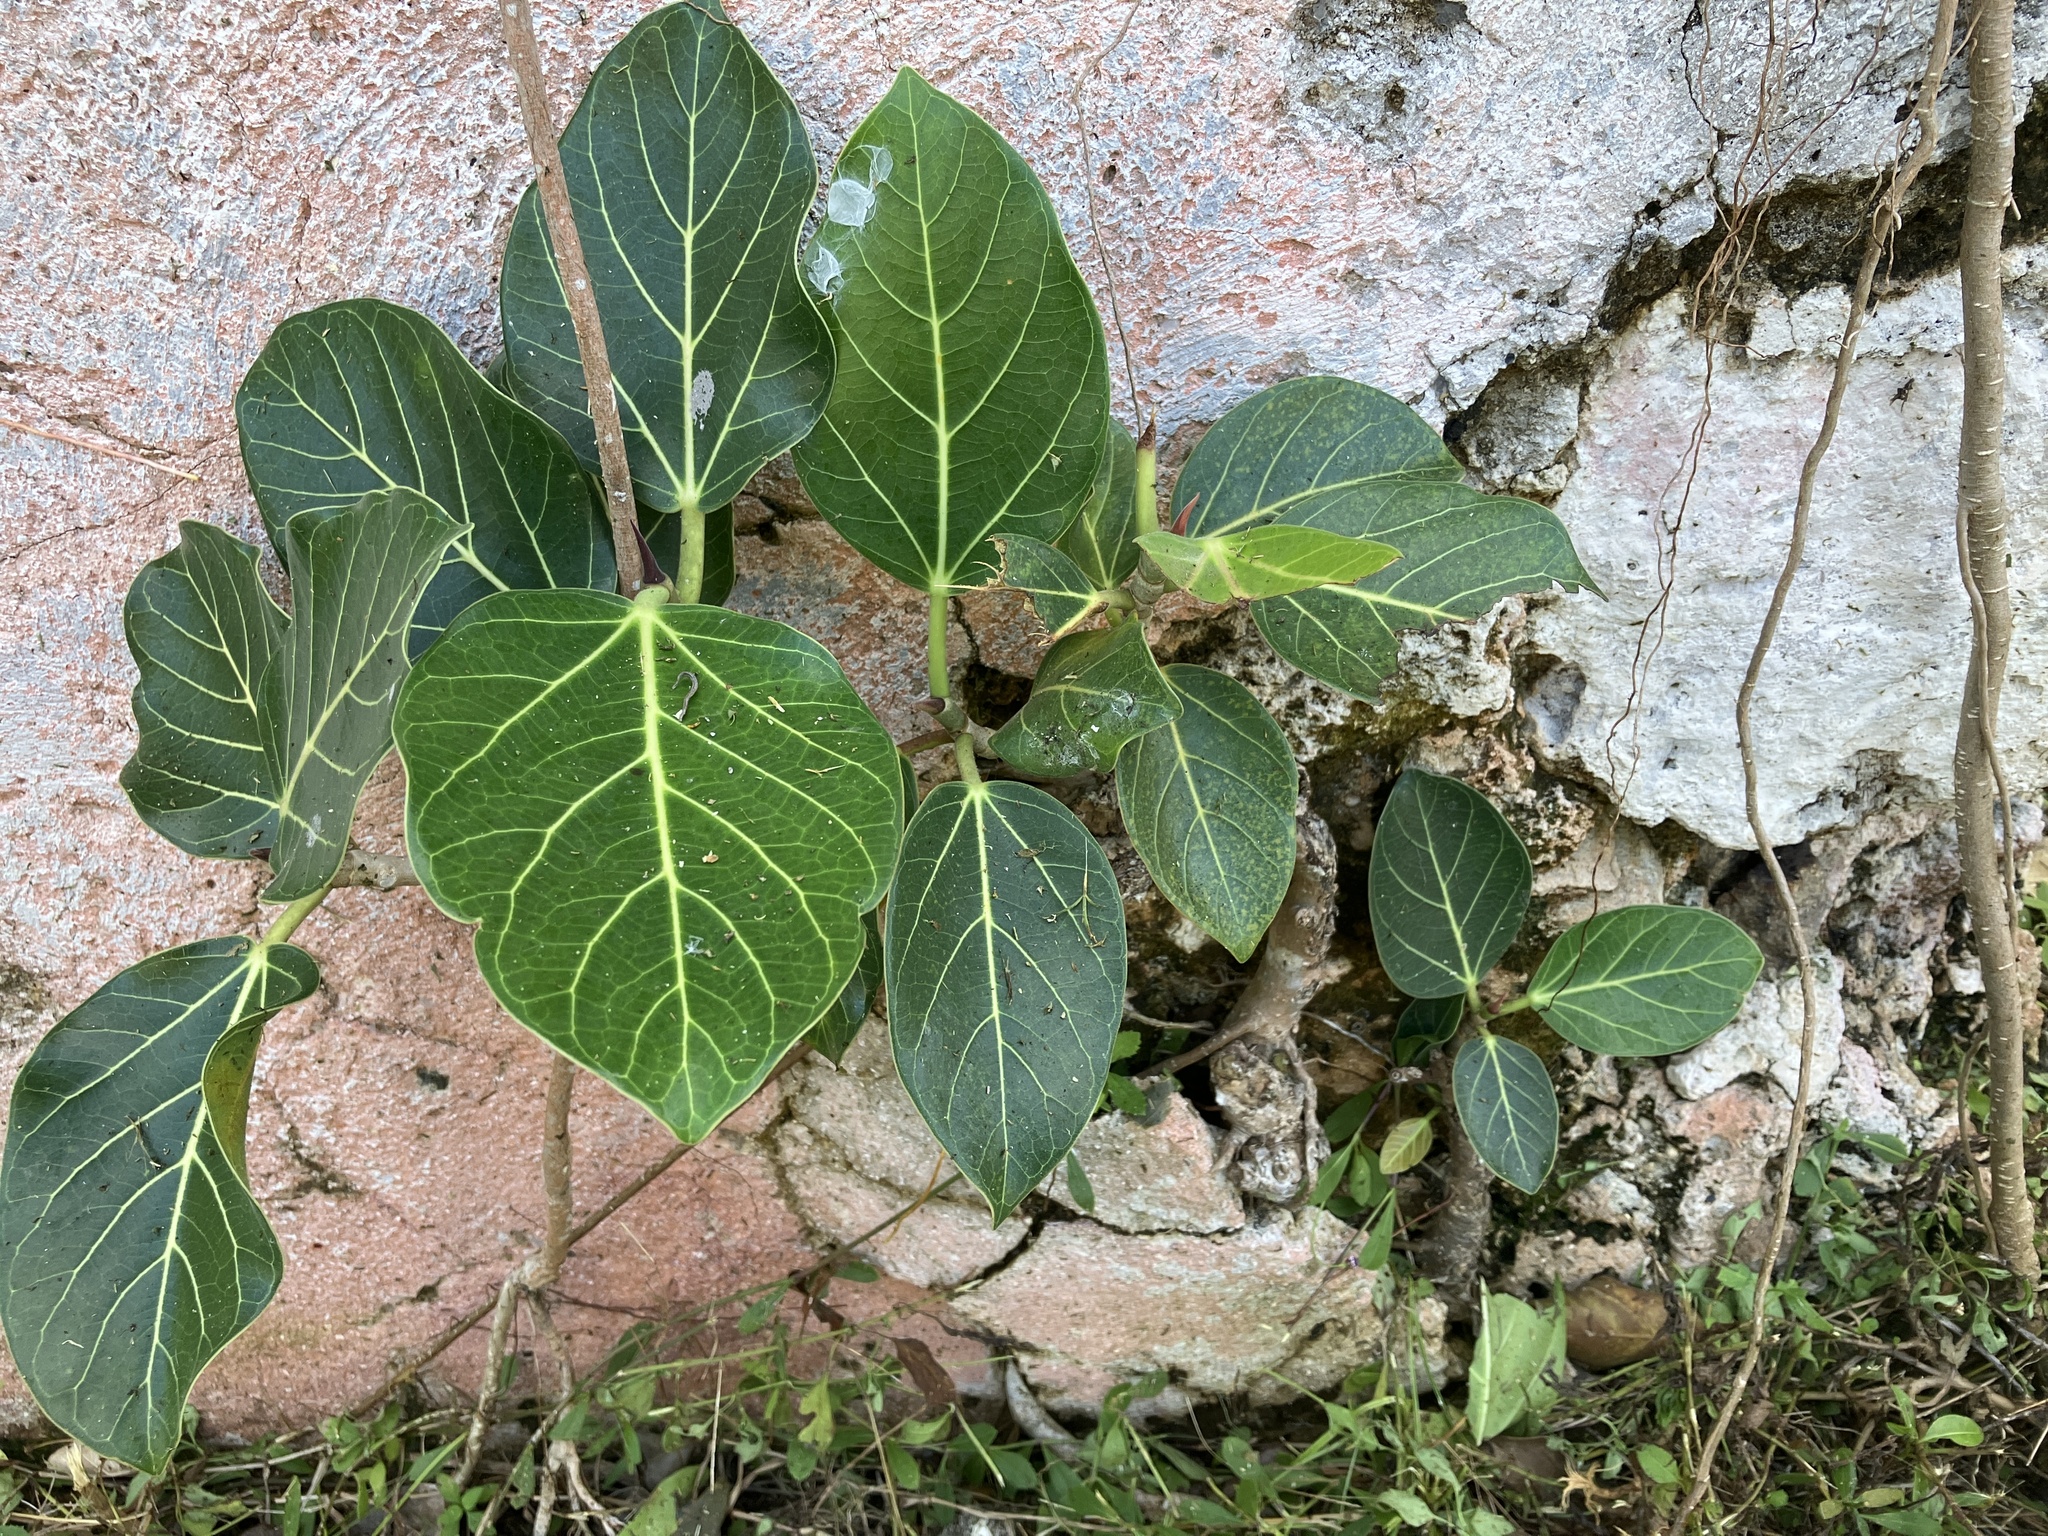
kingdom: Plantae
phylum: Tracheophyta
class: Magnoliopsida
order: Rosales
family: Moraceae
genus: Ficus
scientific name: Ficus benghalensis
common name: Indian banyan
